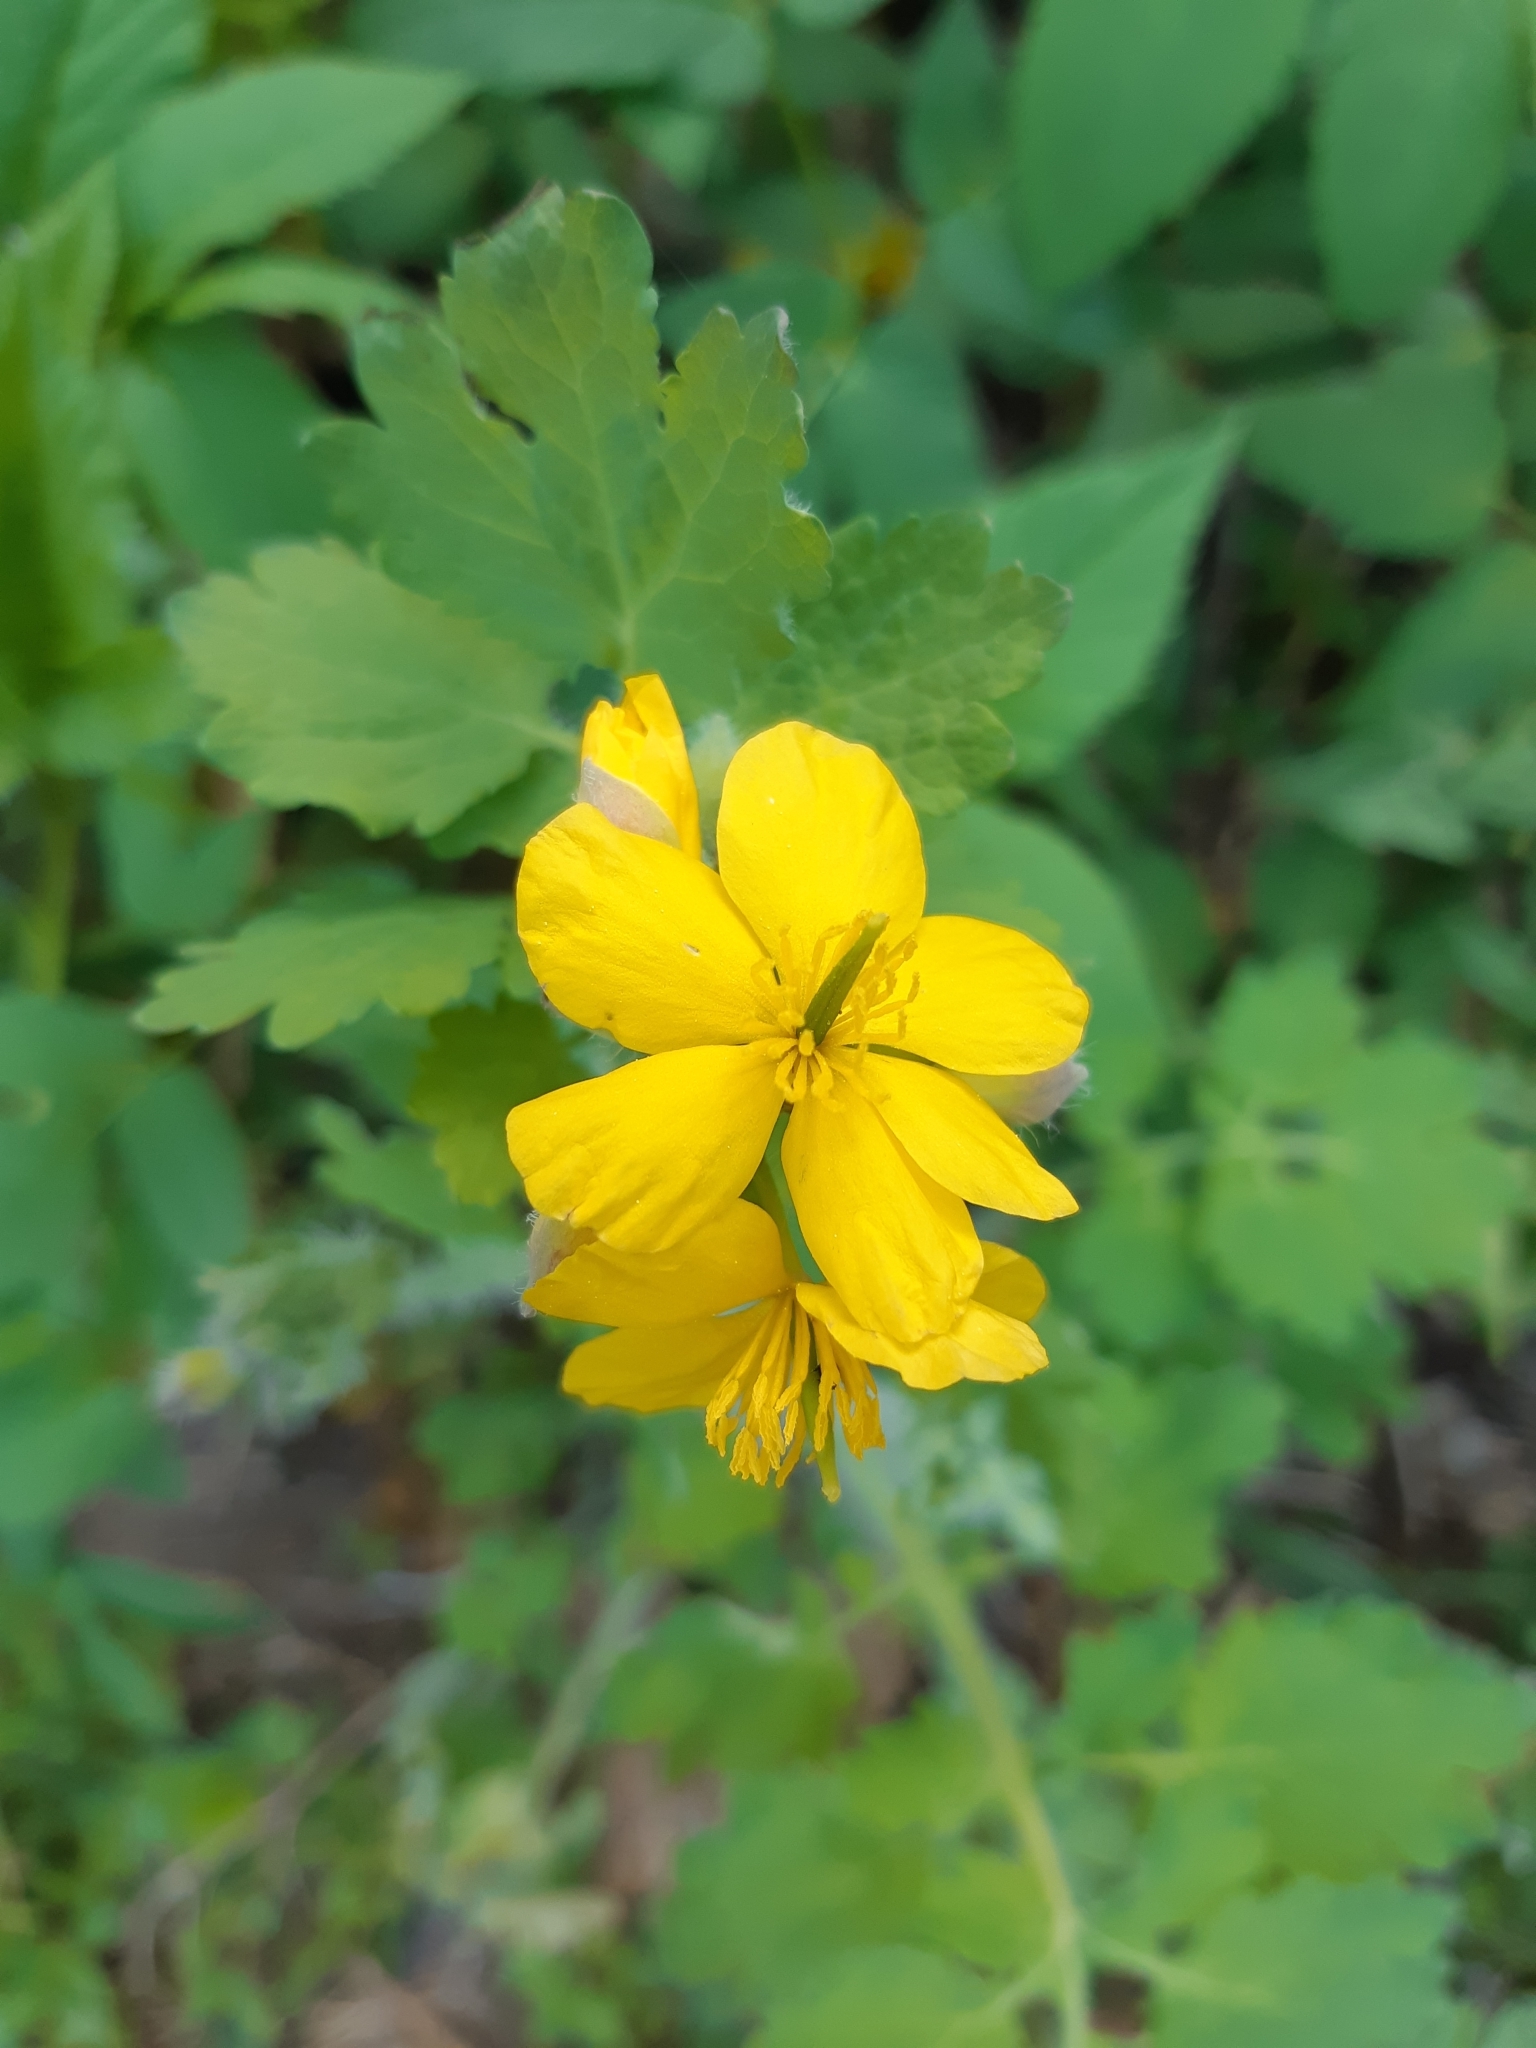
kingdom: Plantae
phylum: Tracheophyta
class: Magnoliopsida
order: Ranunculales
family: Papaveraceae
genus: Chelidonium
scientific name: Chelidonium majus
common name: Greater celandine
